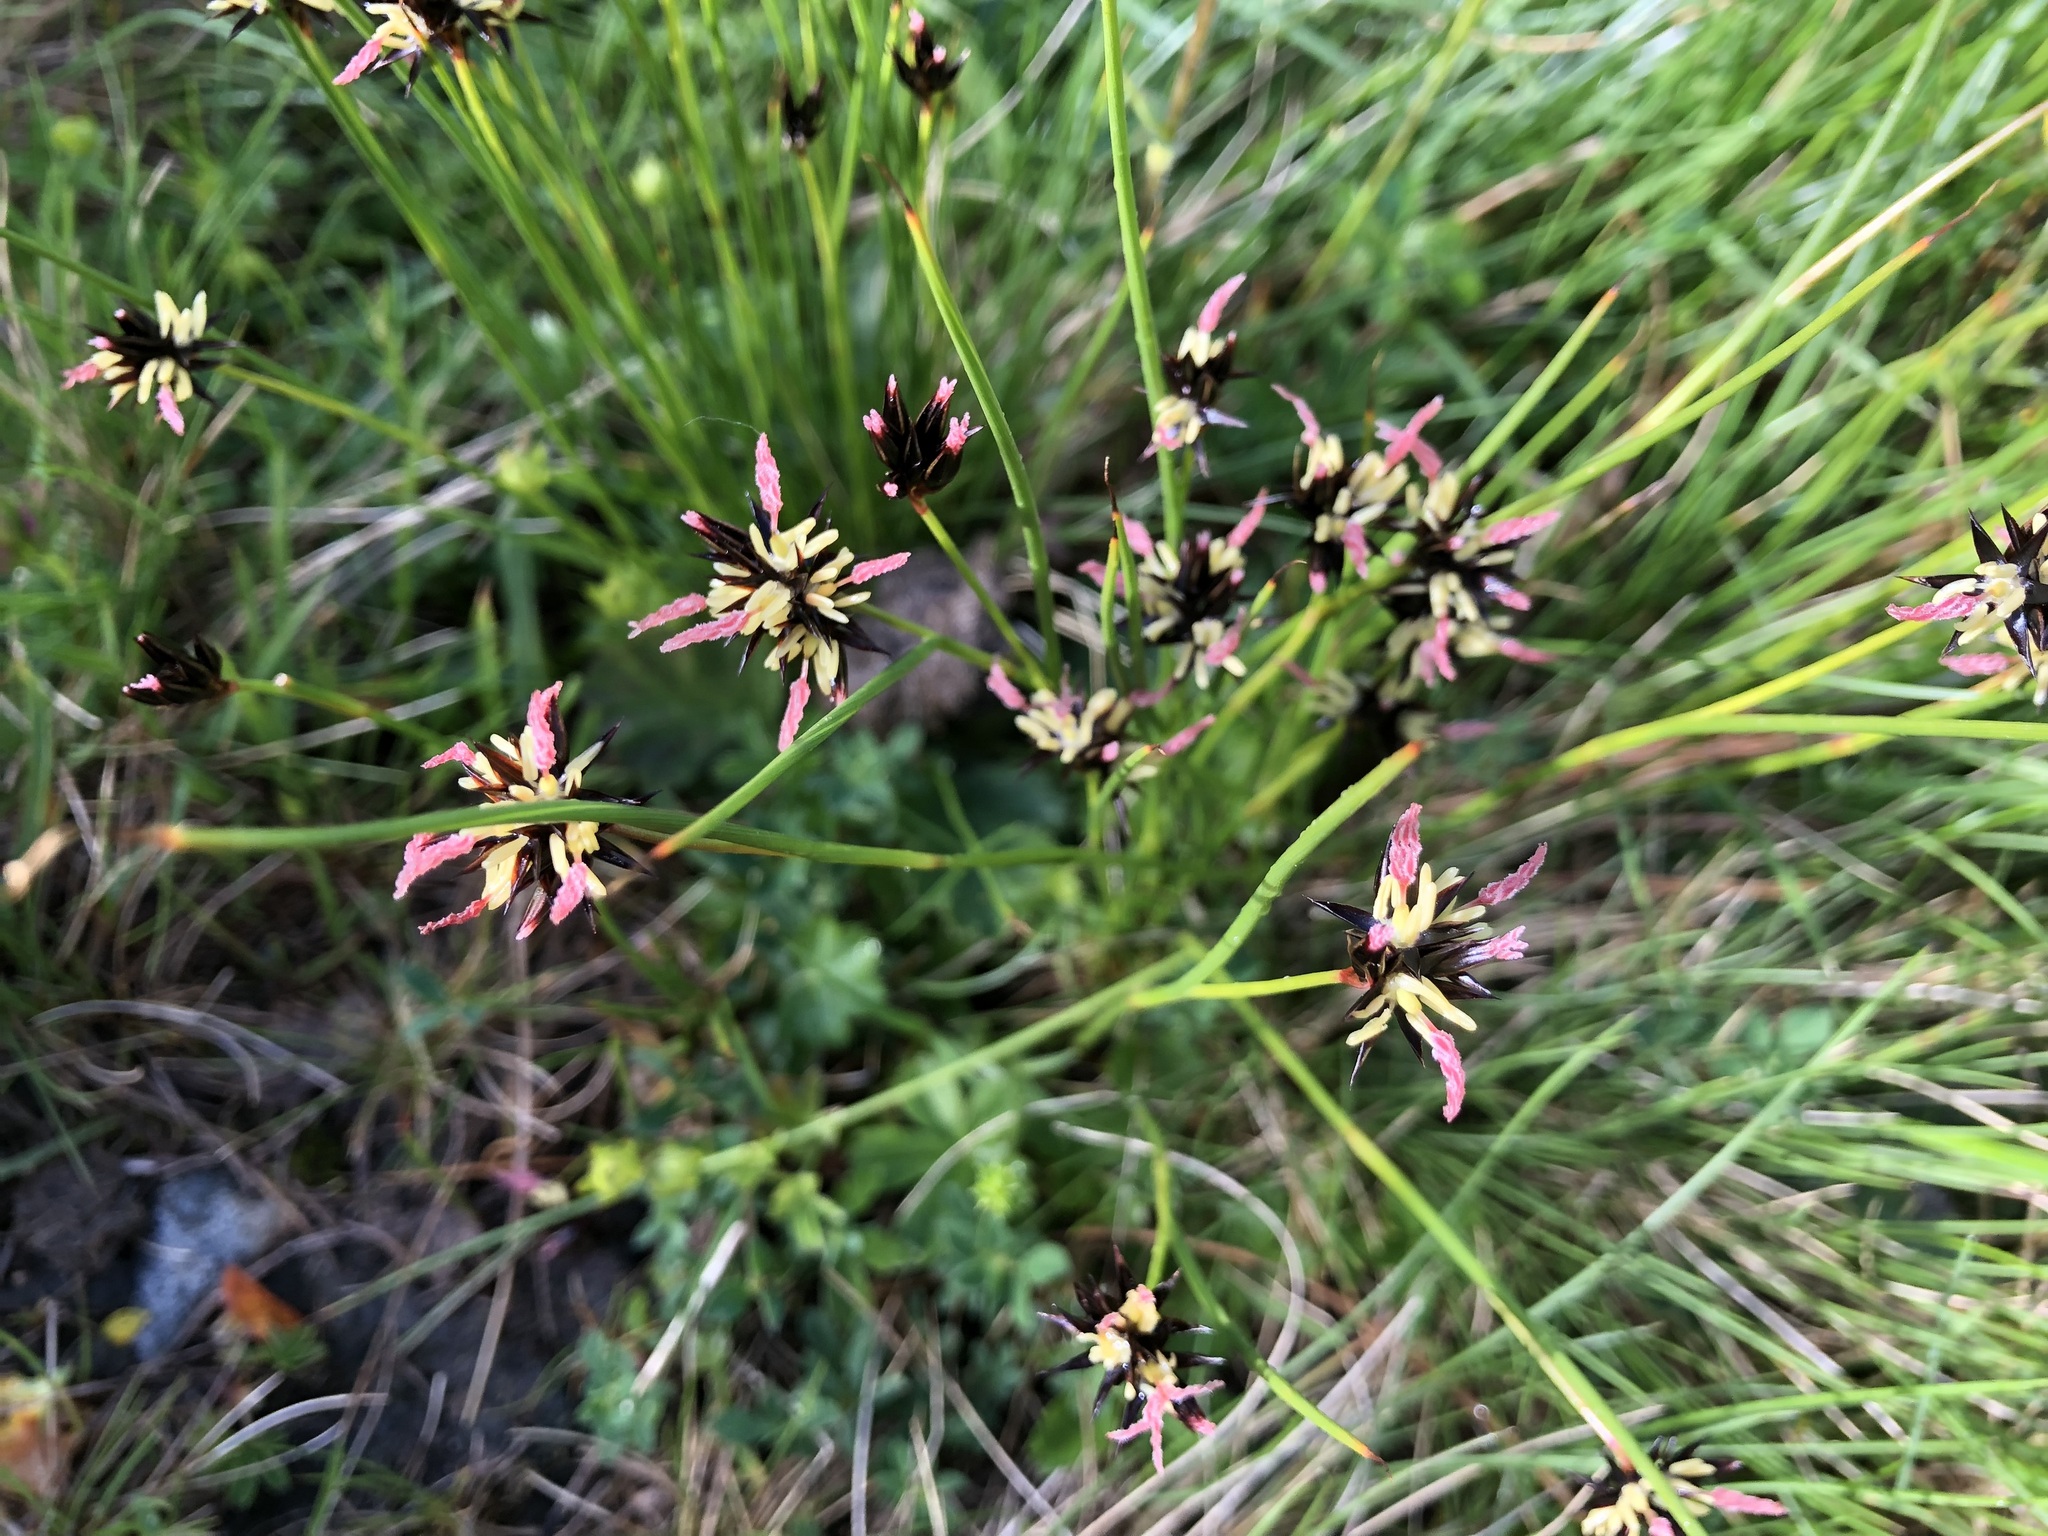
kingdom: Plantae
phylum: Tracheophyta
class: Liliopsida
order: Poales
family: Juncaceae
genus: Juncus
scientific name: Juncus jacquinii
